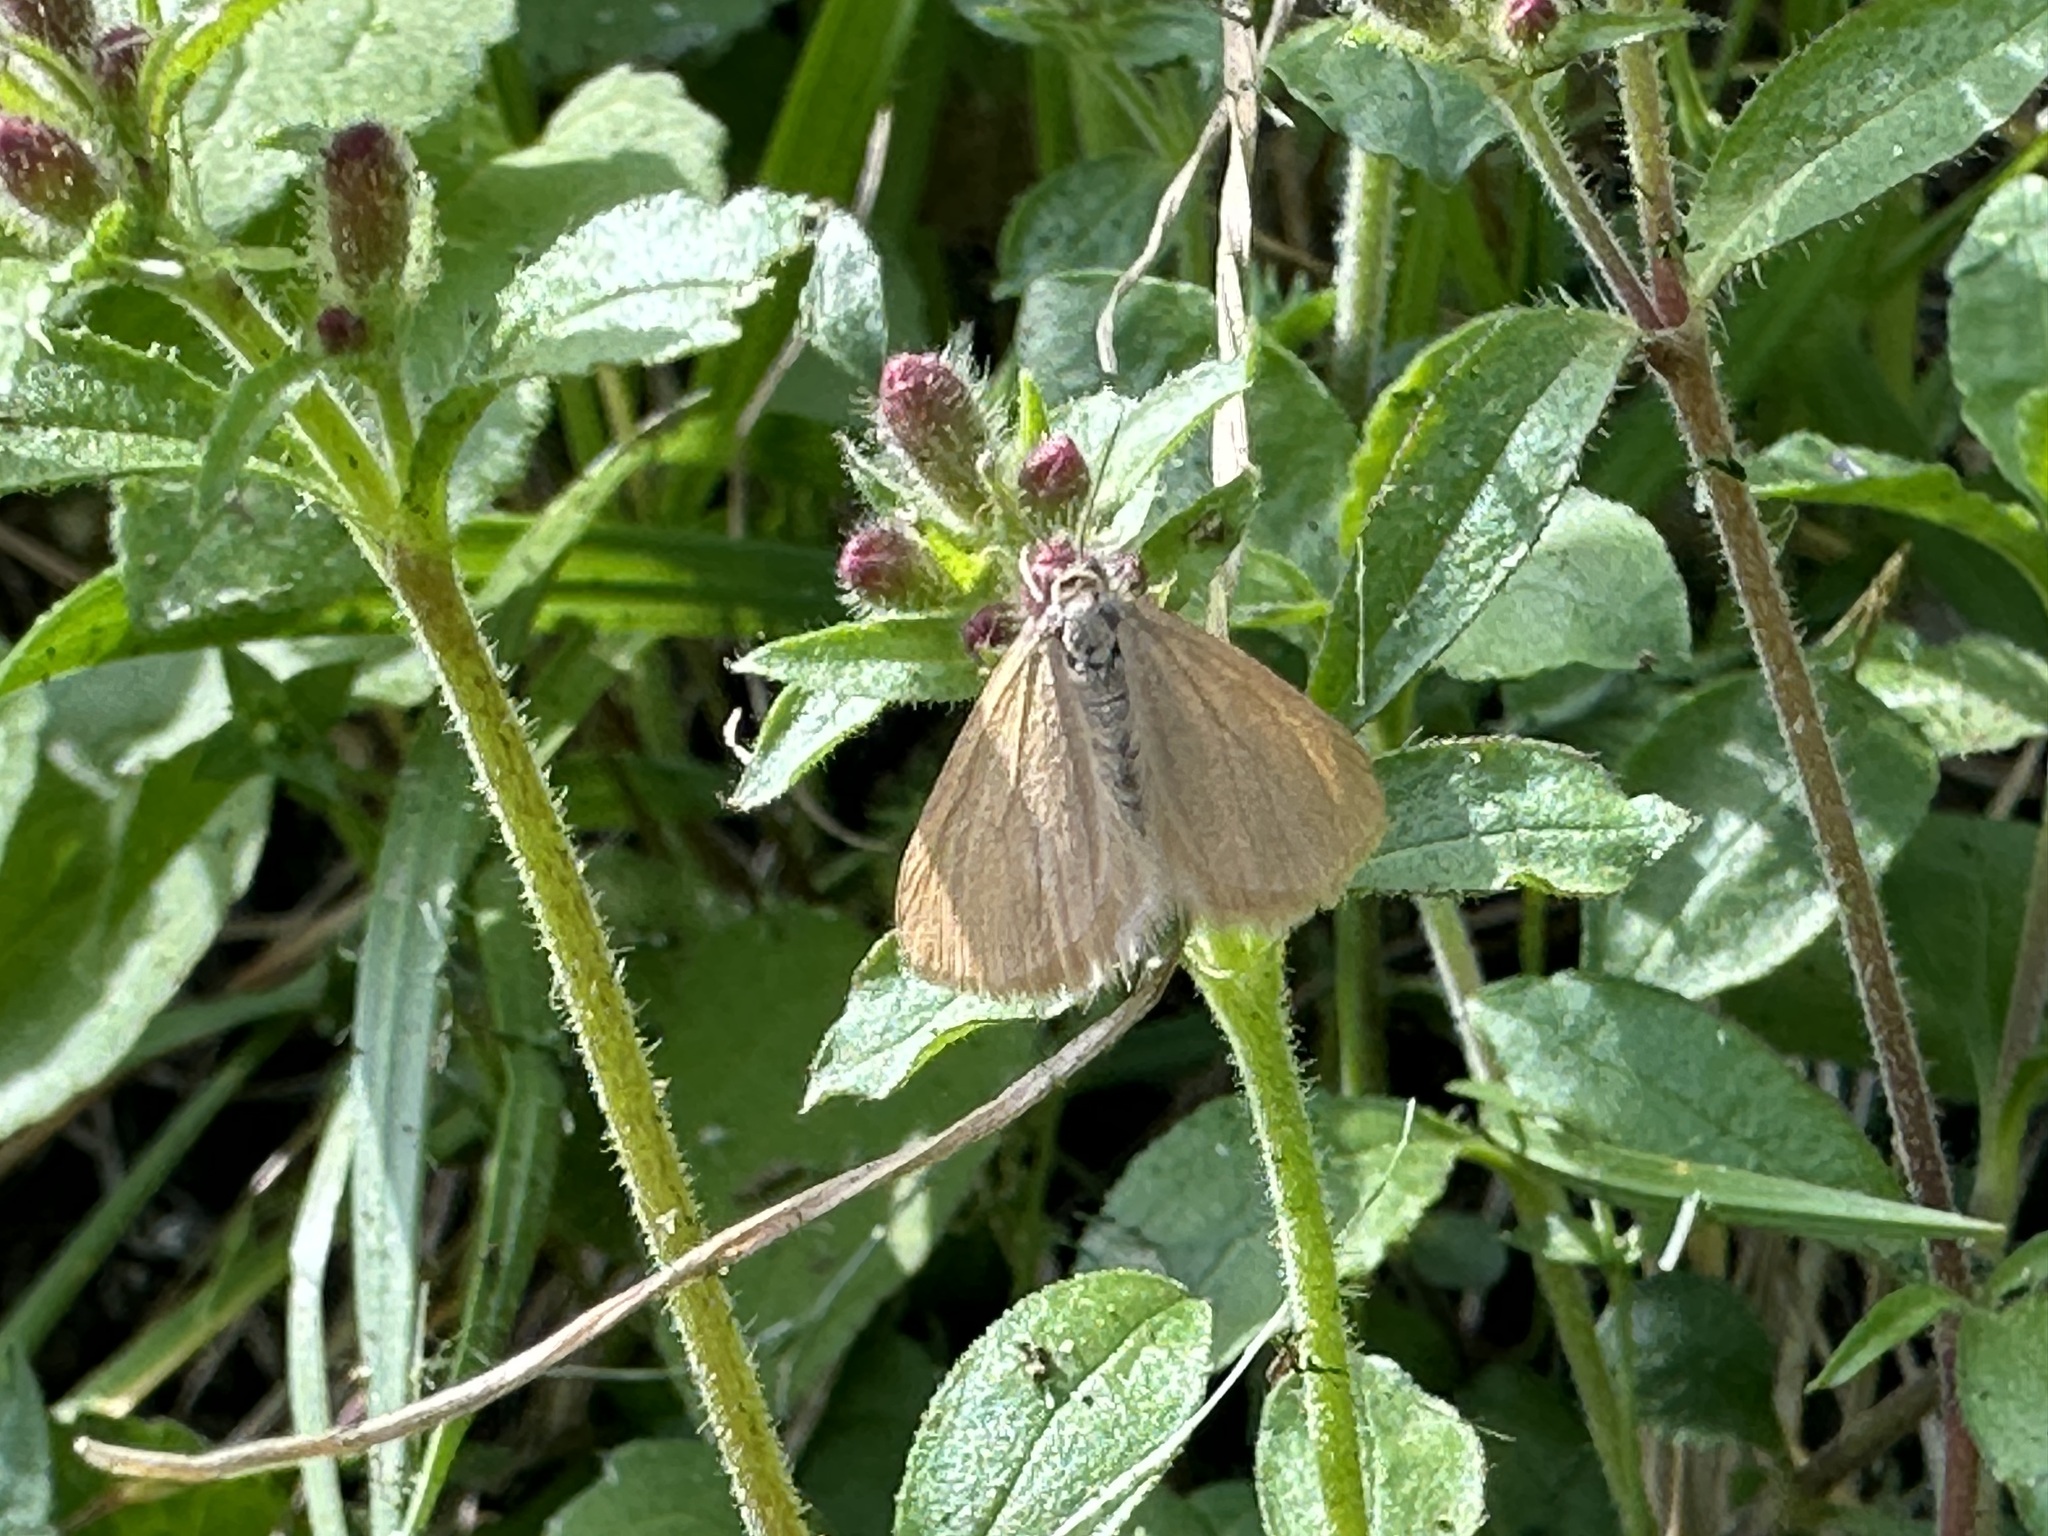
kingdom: Animalia
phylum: Arthropoda
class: Insecta
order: Lepidoptera
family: Geometridae
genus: Minoa
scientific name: Minoa murinata
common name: Drab looper
